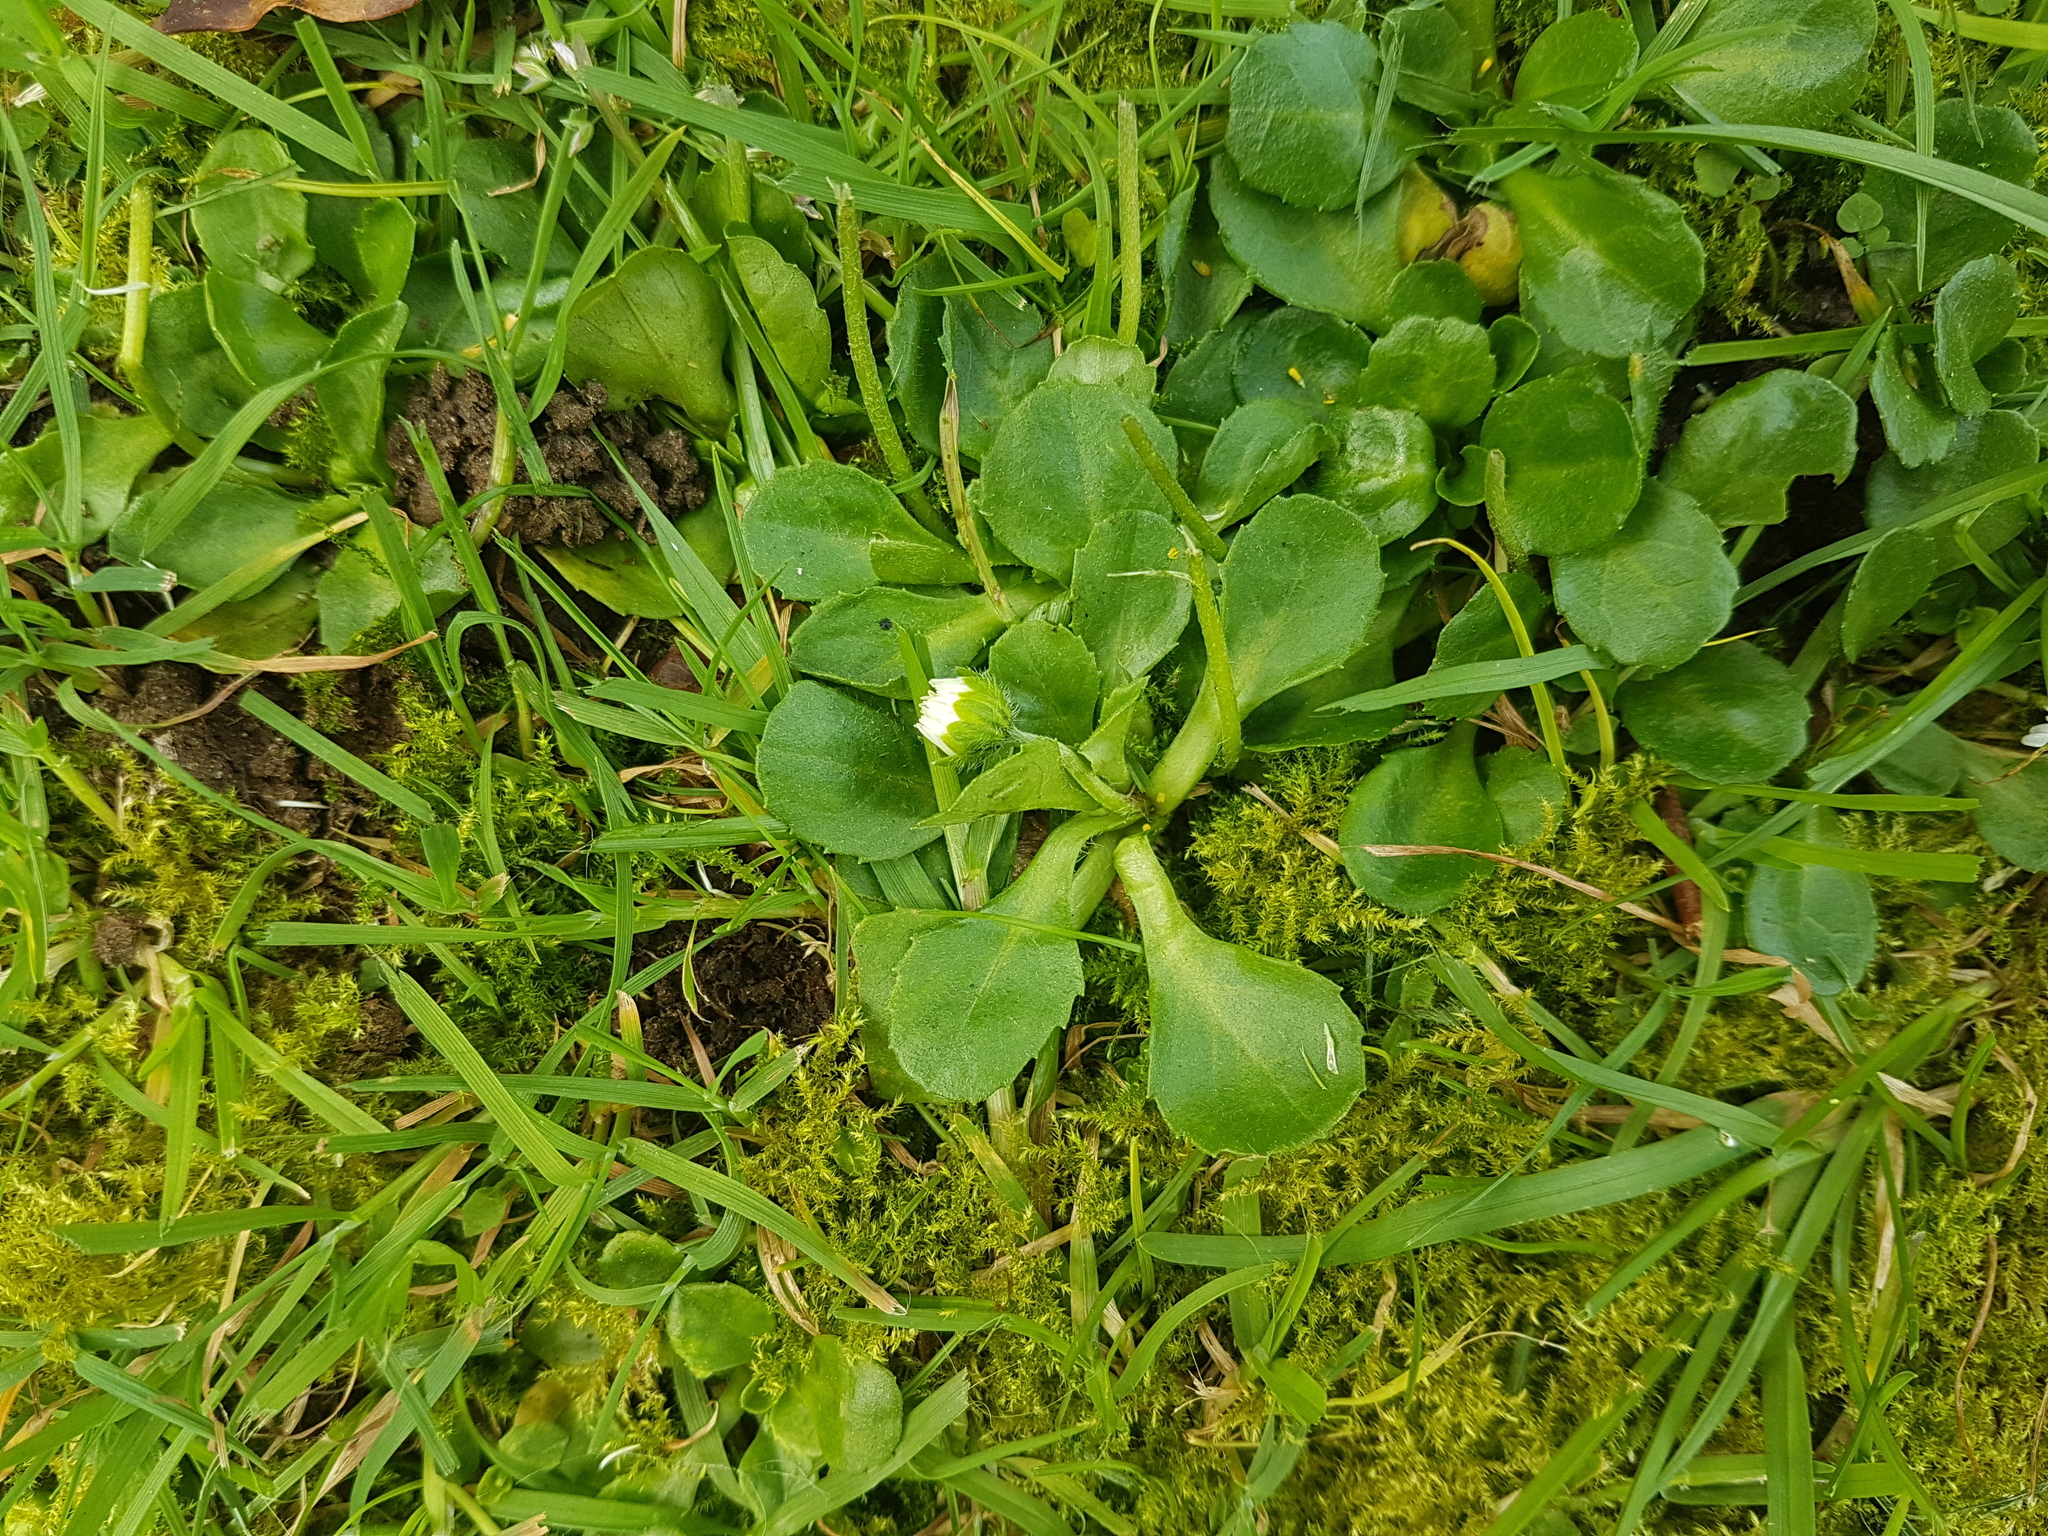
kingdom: Plantae
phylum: Tracheophyta
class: Magnoliopsida
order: Asterales
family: Asteraceae
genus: Bellis
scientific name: Bellis perennis
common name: Lawndaisy
